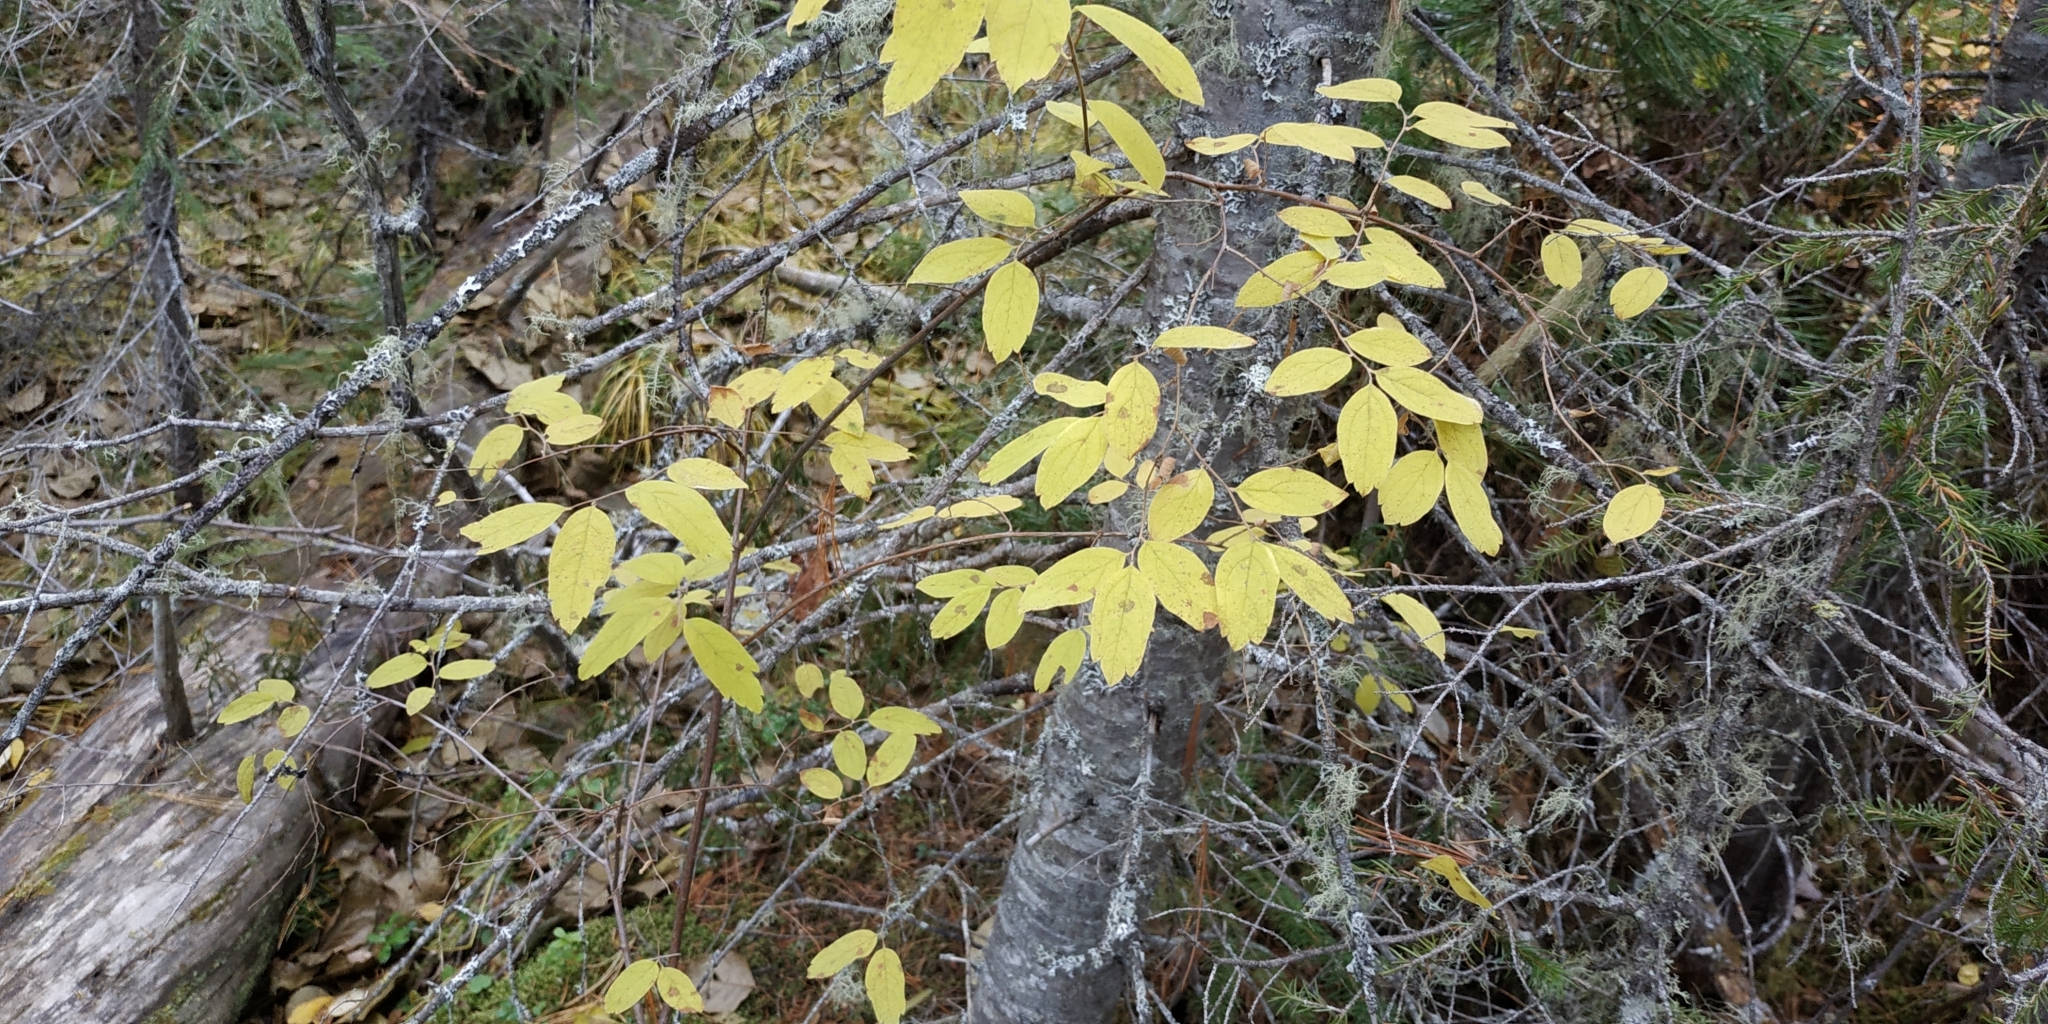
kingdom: Plantae
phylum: Tracheophyta
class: Magnoliopsida
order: Rosales
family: Rosaceae
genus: Spiraea
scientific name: Spiraea media
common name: Russian spiraea
